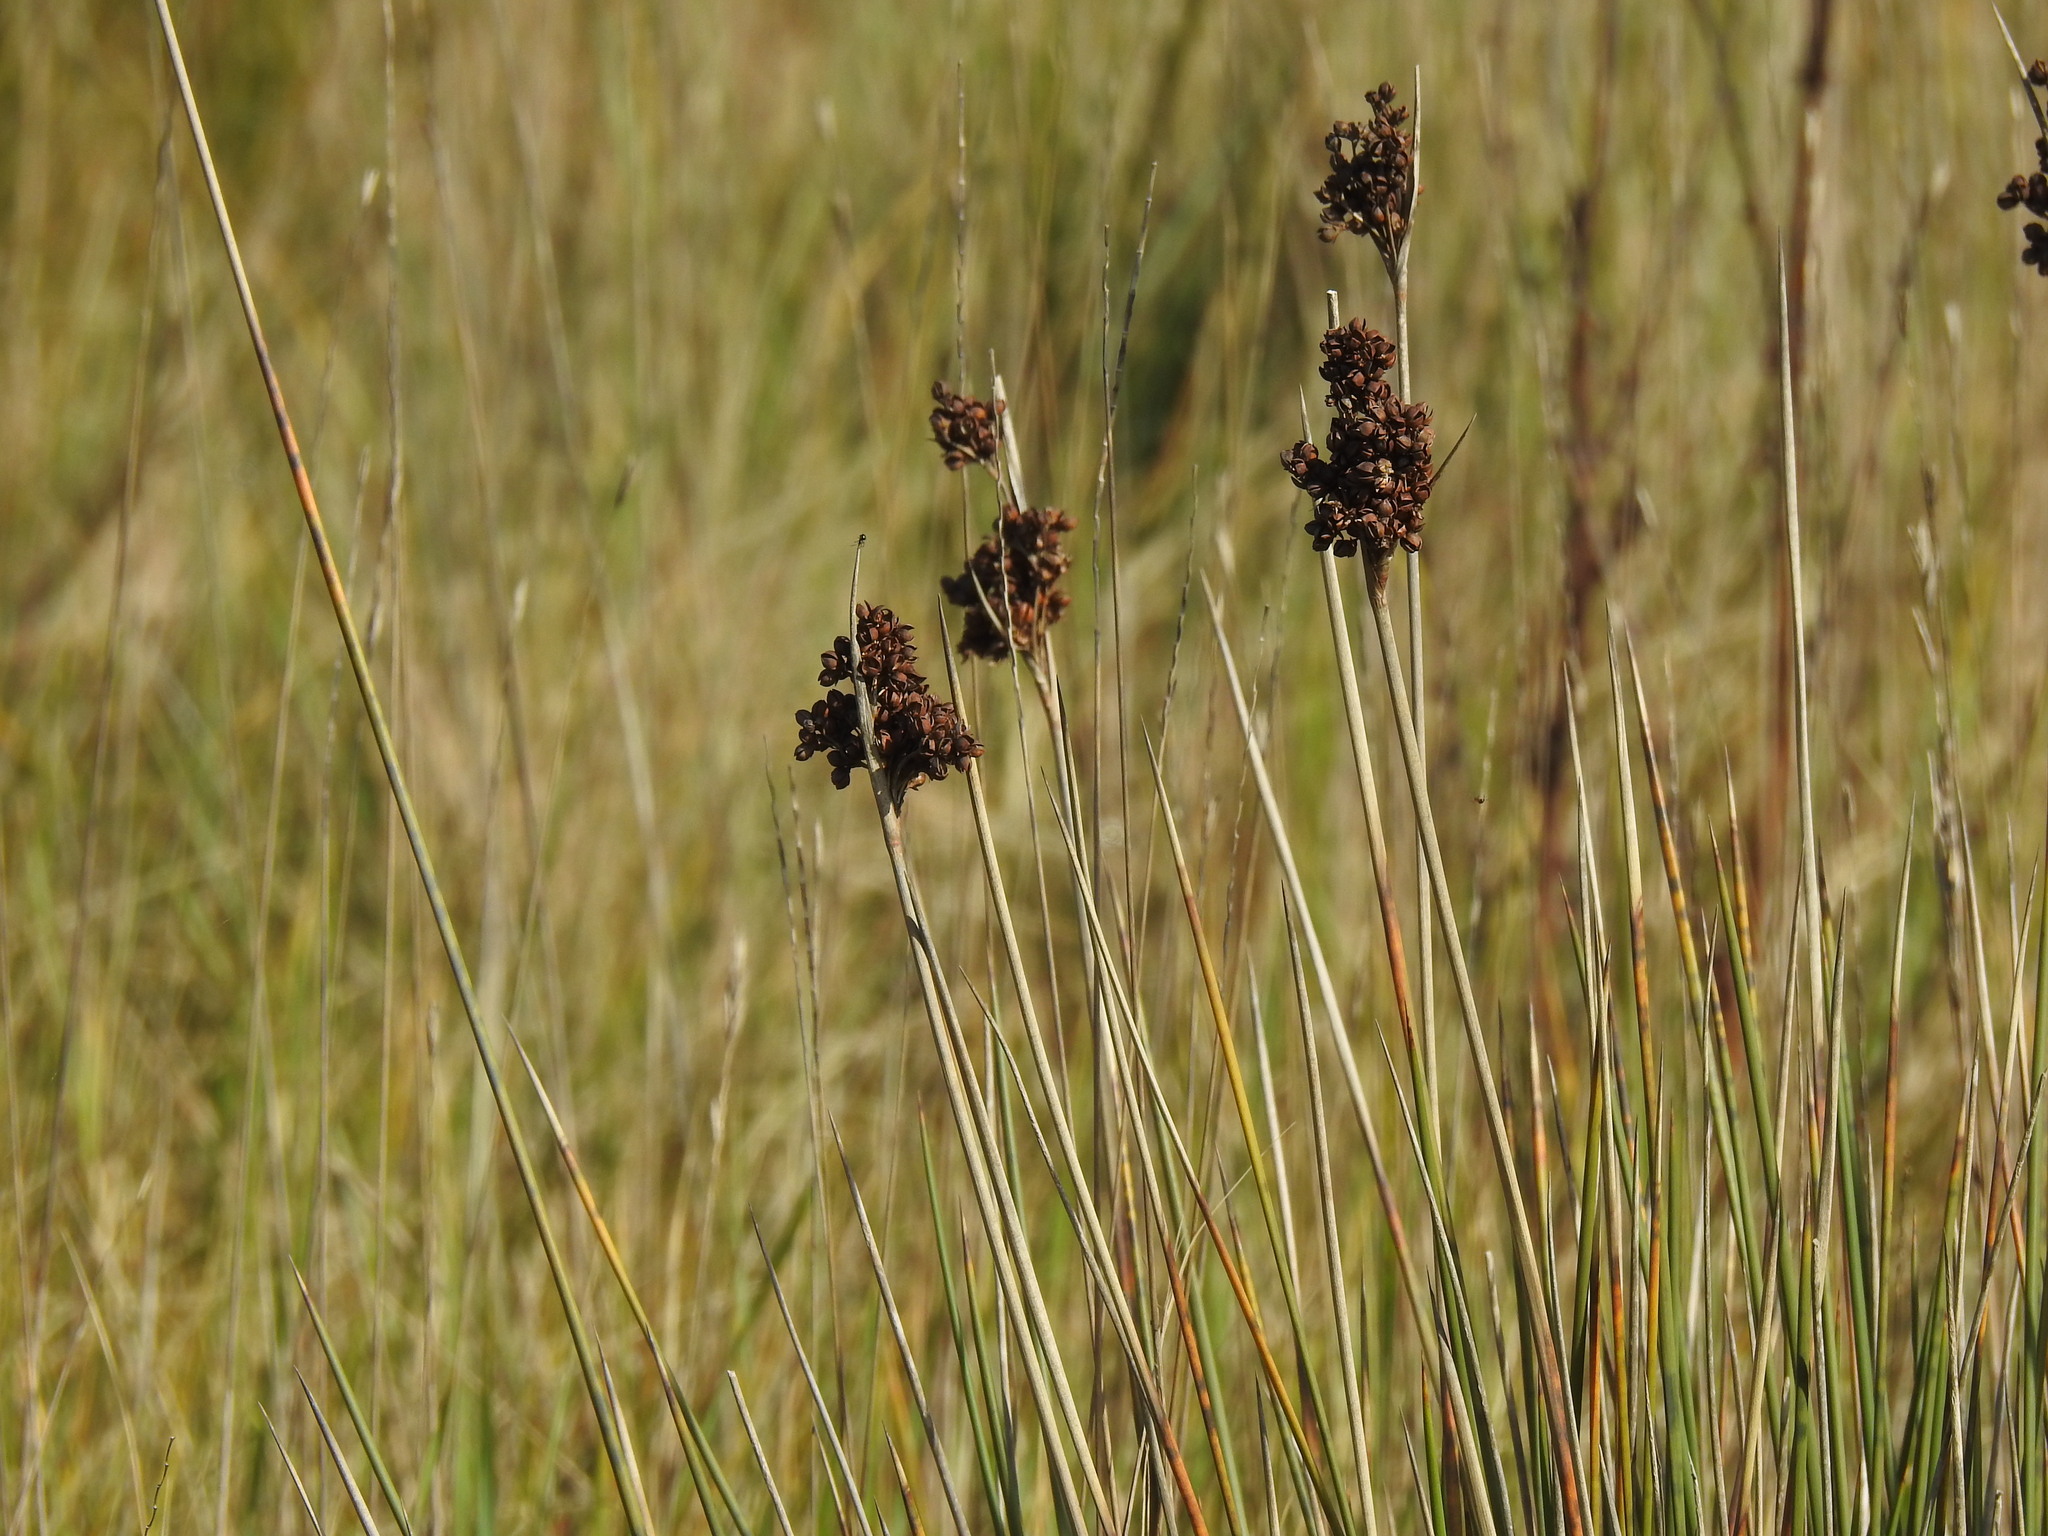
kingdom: Plantae
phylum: Tracheophyta
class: Liliopsida
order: Poales
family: Juncaceae
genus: Juncus
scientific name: Juncus acutus
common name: Sharp rush
